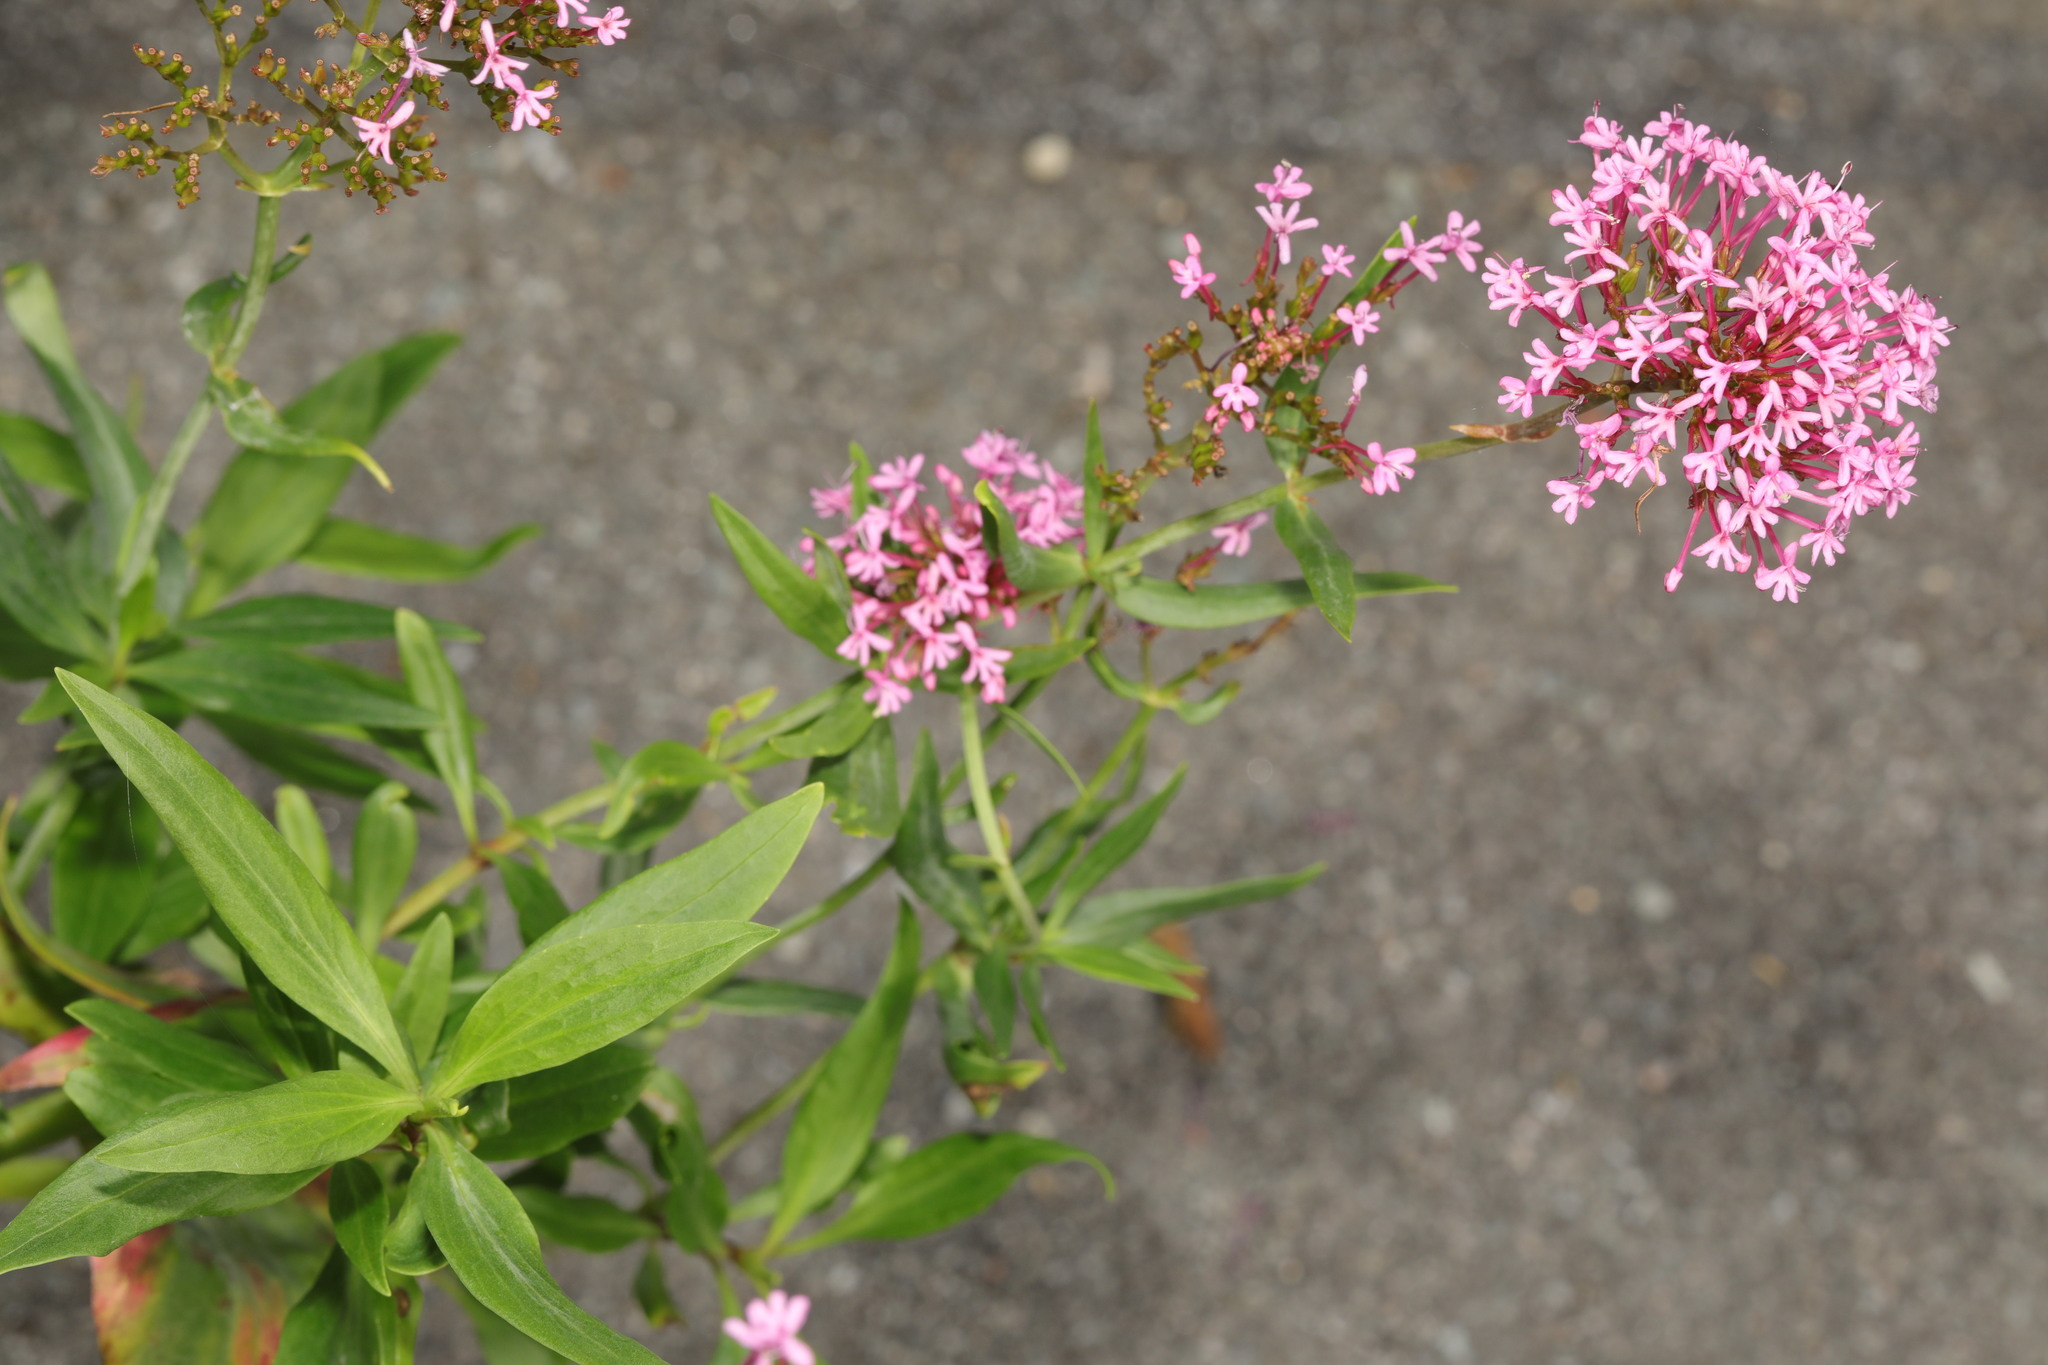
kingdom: Plantae
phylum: Tracheophyta
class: Magnoliopsida
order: Dipsacales
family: Caprifoliaceae
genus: Centranthus
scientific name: Centranthus ruber
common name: Red valerian
